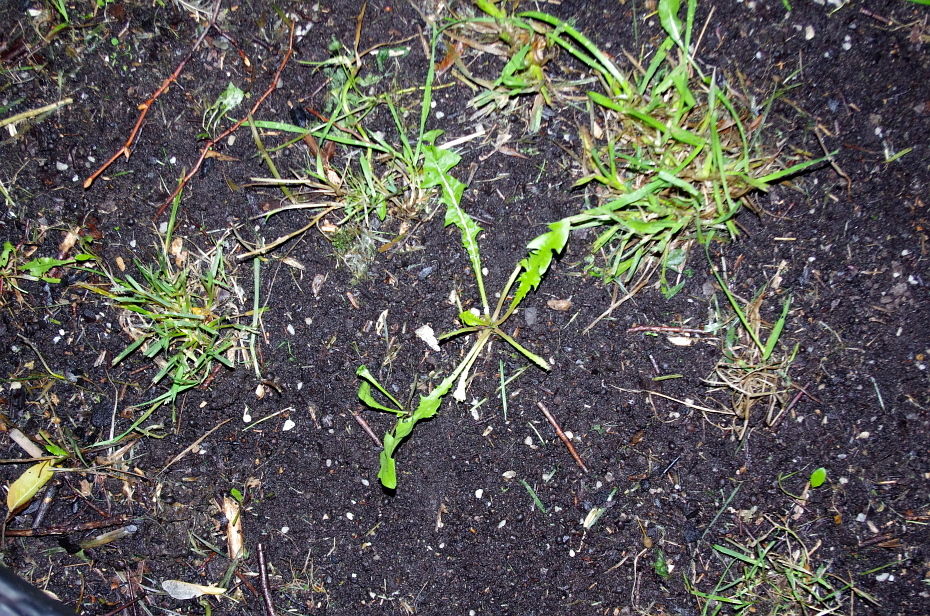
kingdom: Plantae
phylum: Tracheophyta
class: Magnoliopsida
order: Asterales
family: Asteraceae
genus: Taraxacum
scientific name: Taraxacum officinale
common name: Common dandelion
